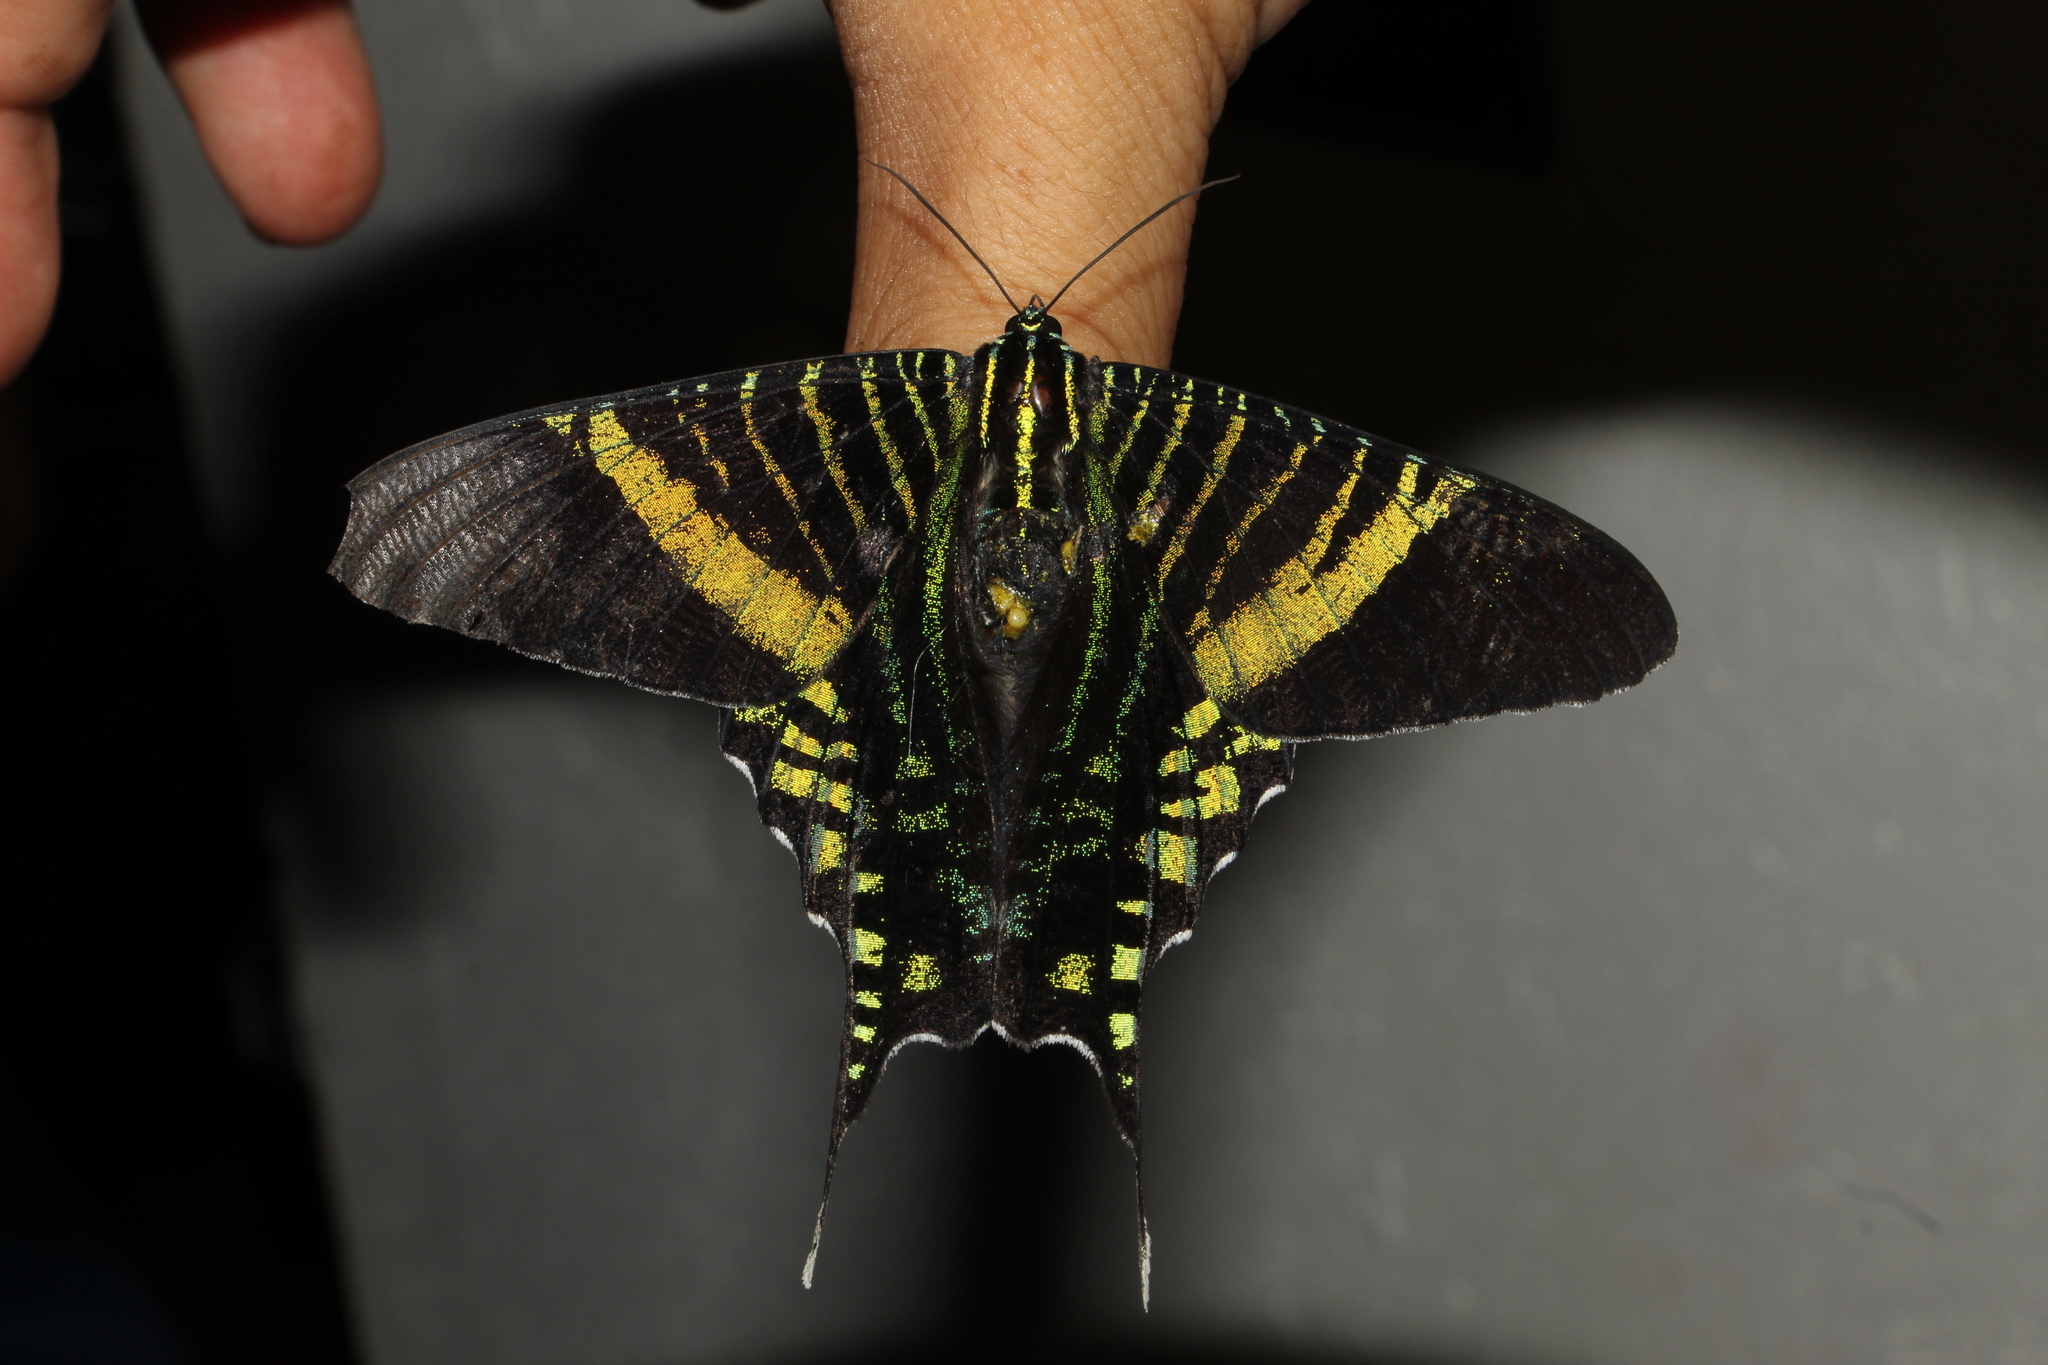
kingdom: Animalia
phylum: Arthropoda
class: Insecta
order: Lepidoptera
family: Uraniidae
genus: Urania
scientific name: Urania fulgens
